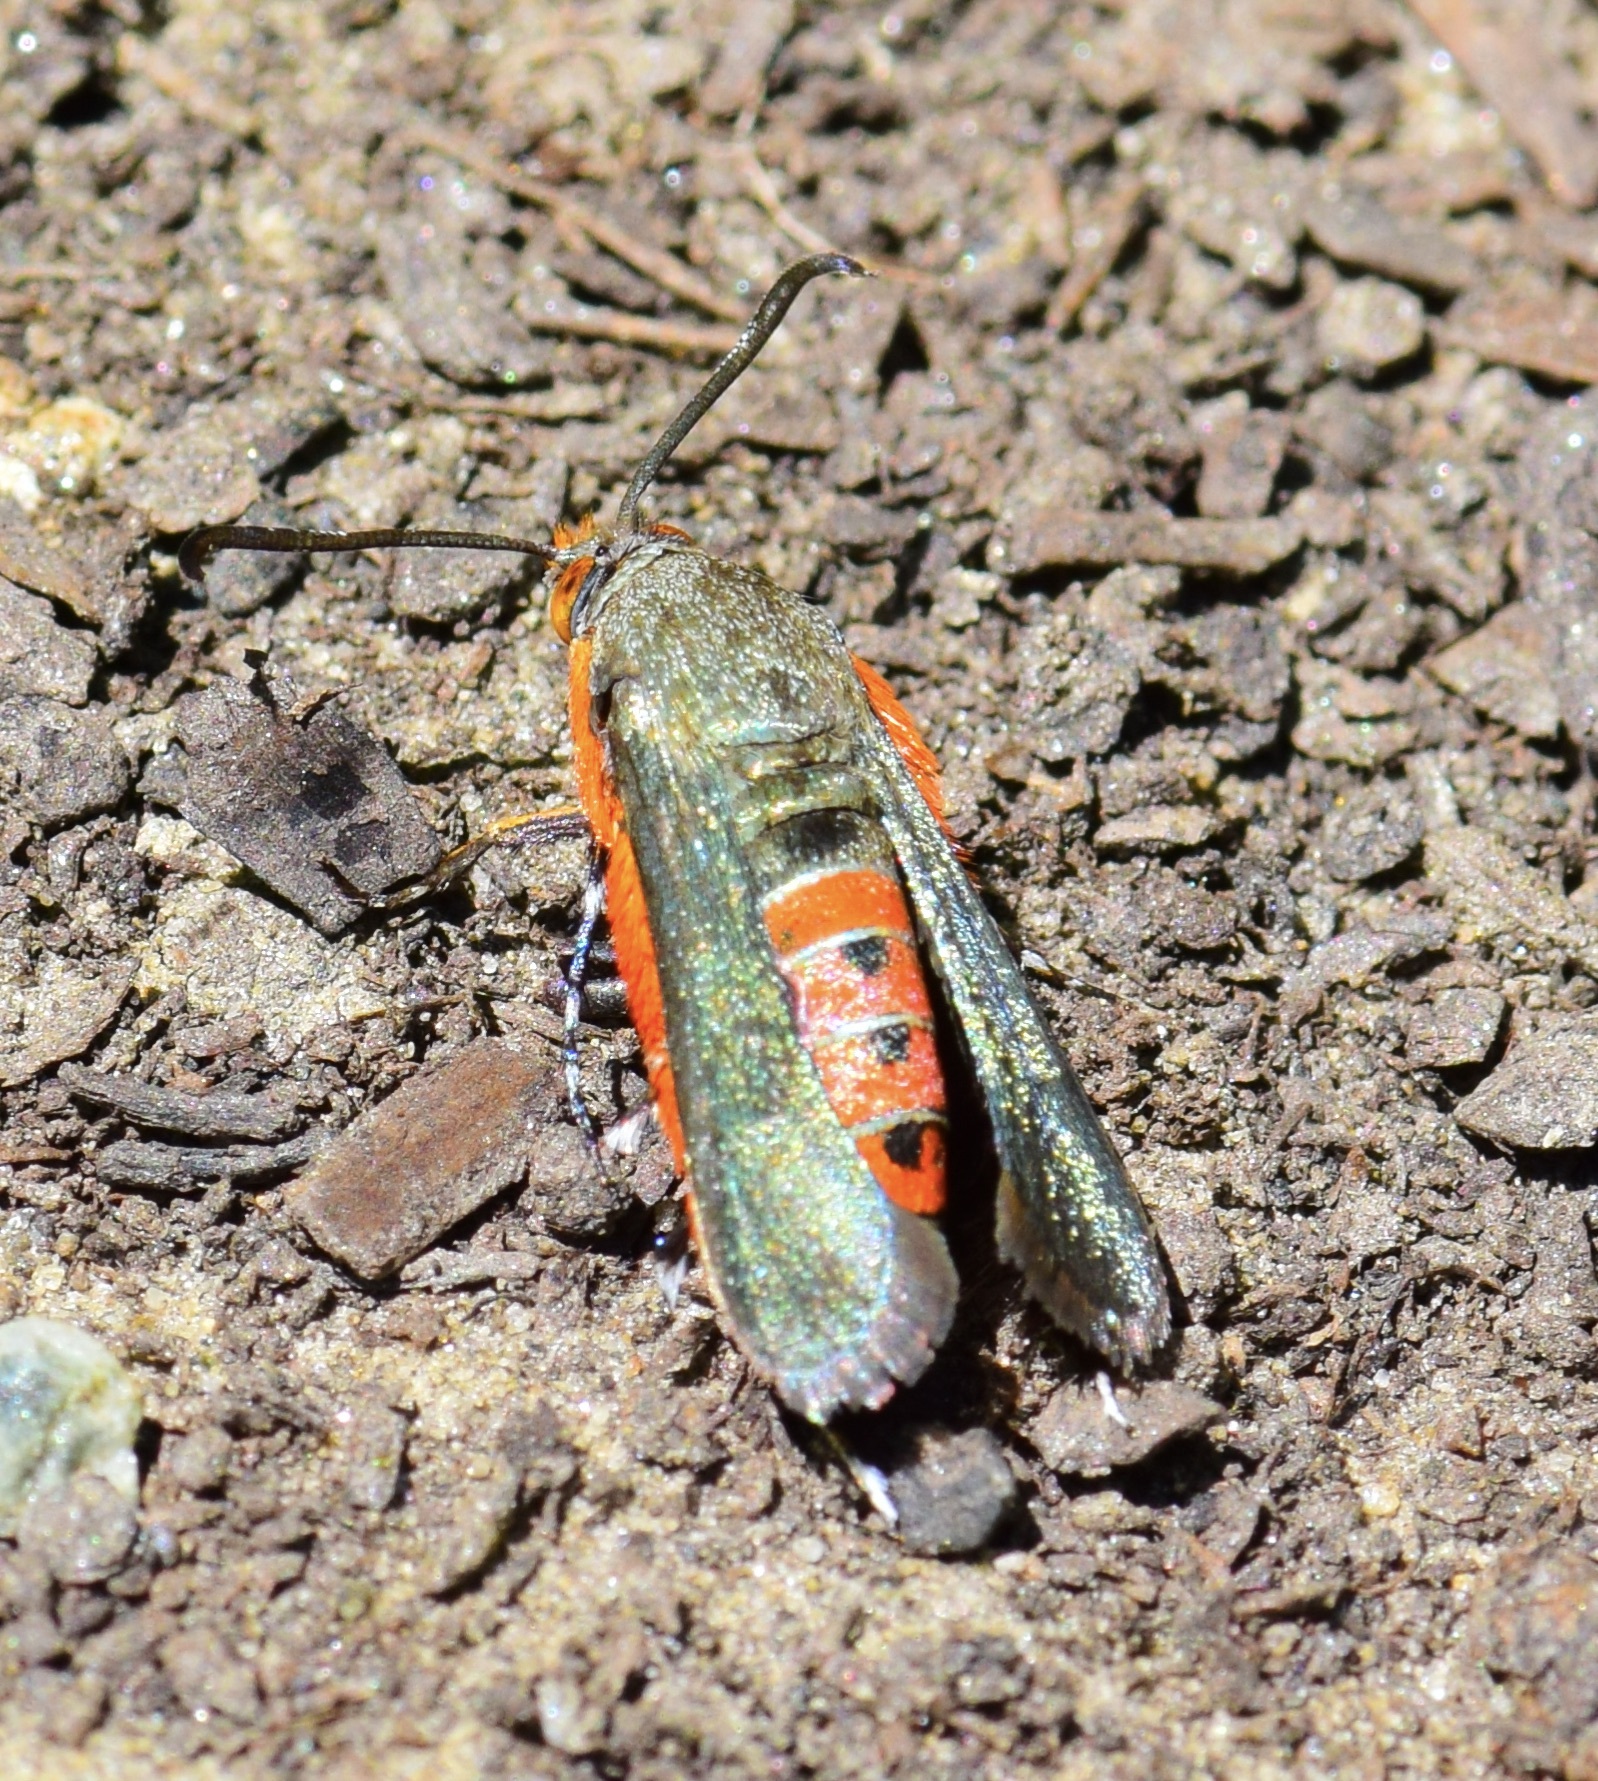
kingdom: Animalia
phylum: Arthropoda
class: Insecta
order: Lepidoptera
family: Sesiidae
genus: Eichlinia
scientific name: Eichlinia cucurbitae
